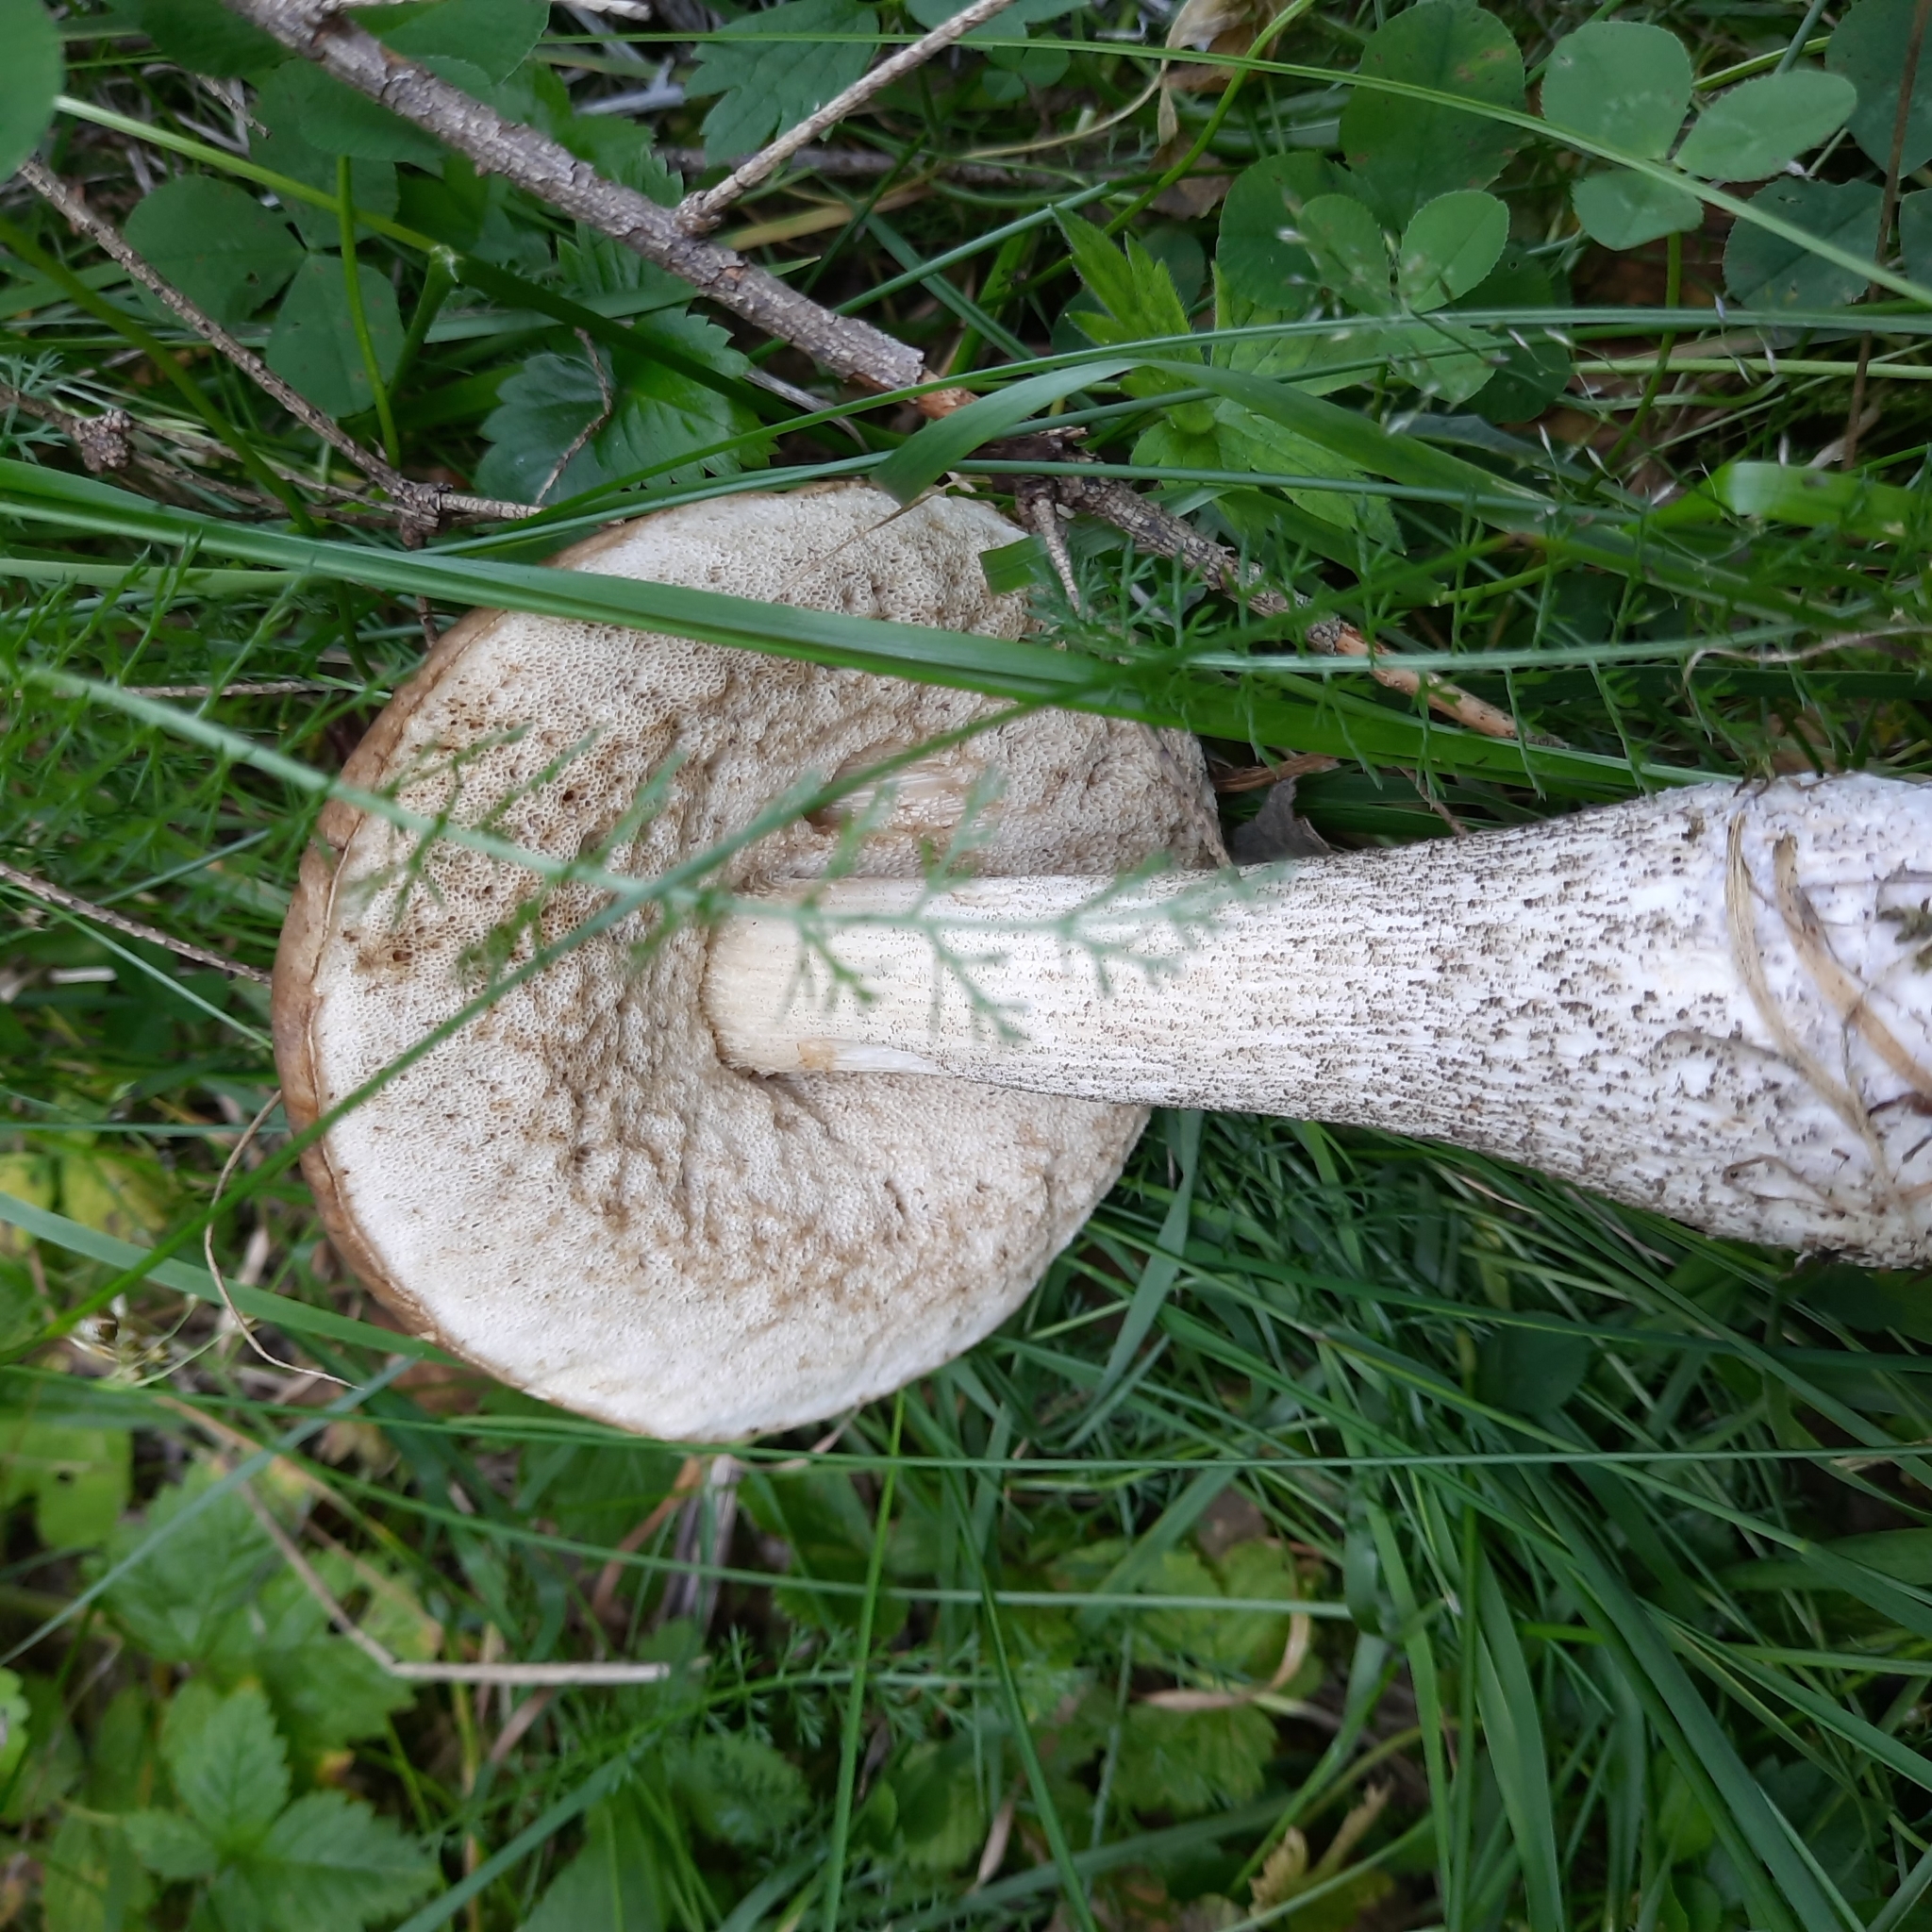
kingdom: Fungi
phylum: Basidiomycota
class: Agaricomycetes
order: Boletales
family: Boletaceae
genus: Leccinum
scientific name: Leccinum scabrum
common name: Blushing bolete
